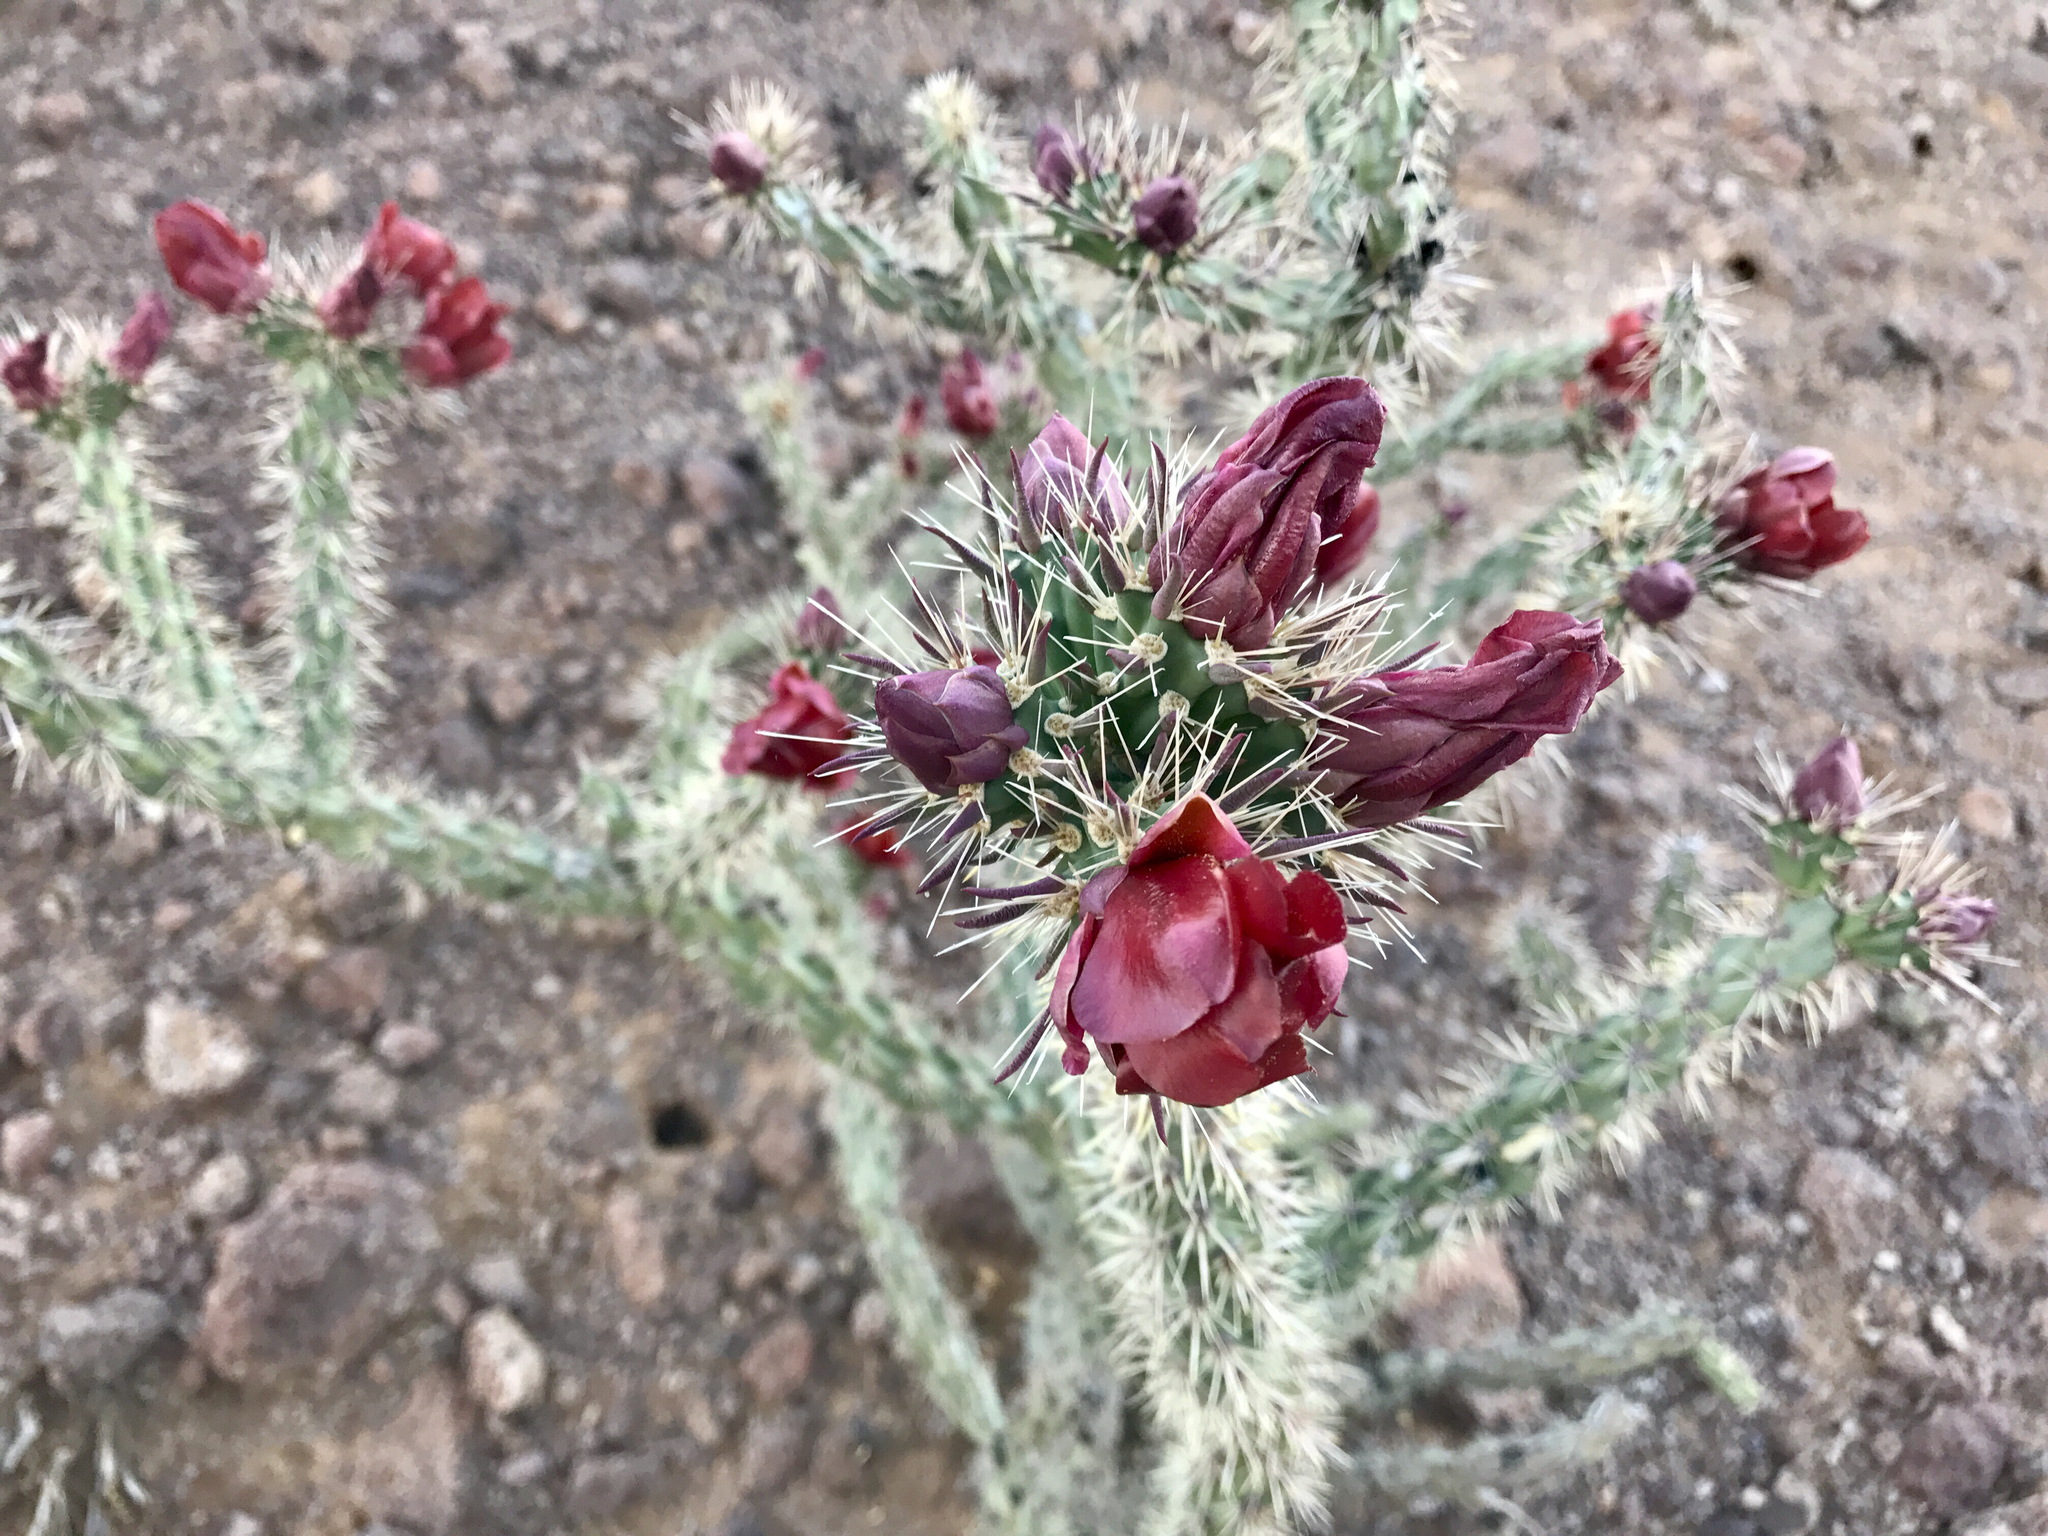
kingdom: Plantae
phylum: Tracheophyta
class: Magnoliopsida
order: Caryophyllales
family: Cactaceae
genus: Cylindropuntia
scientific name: Cylindropuntia acanthocarpa
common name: Buckhorn cholla
